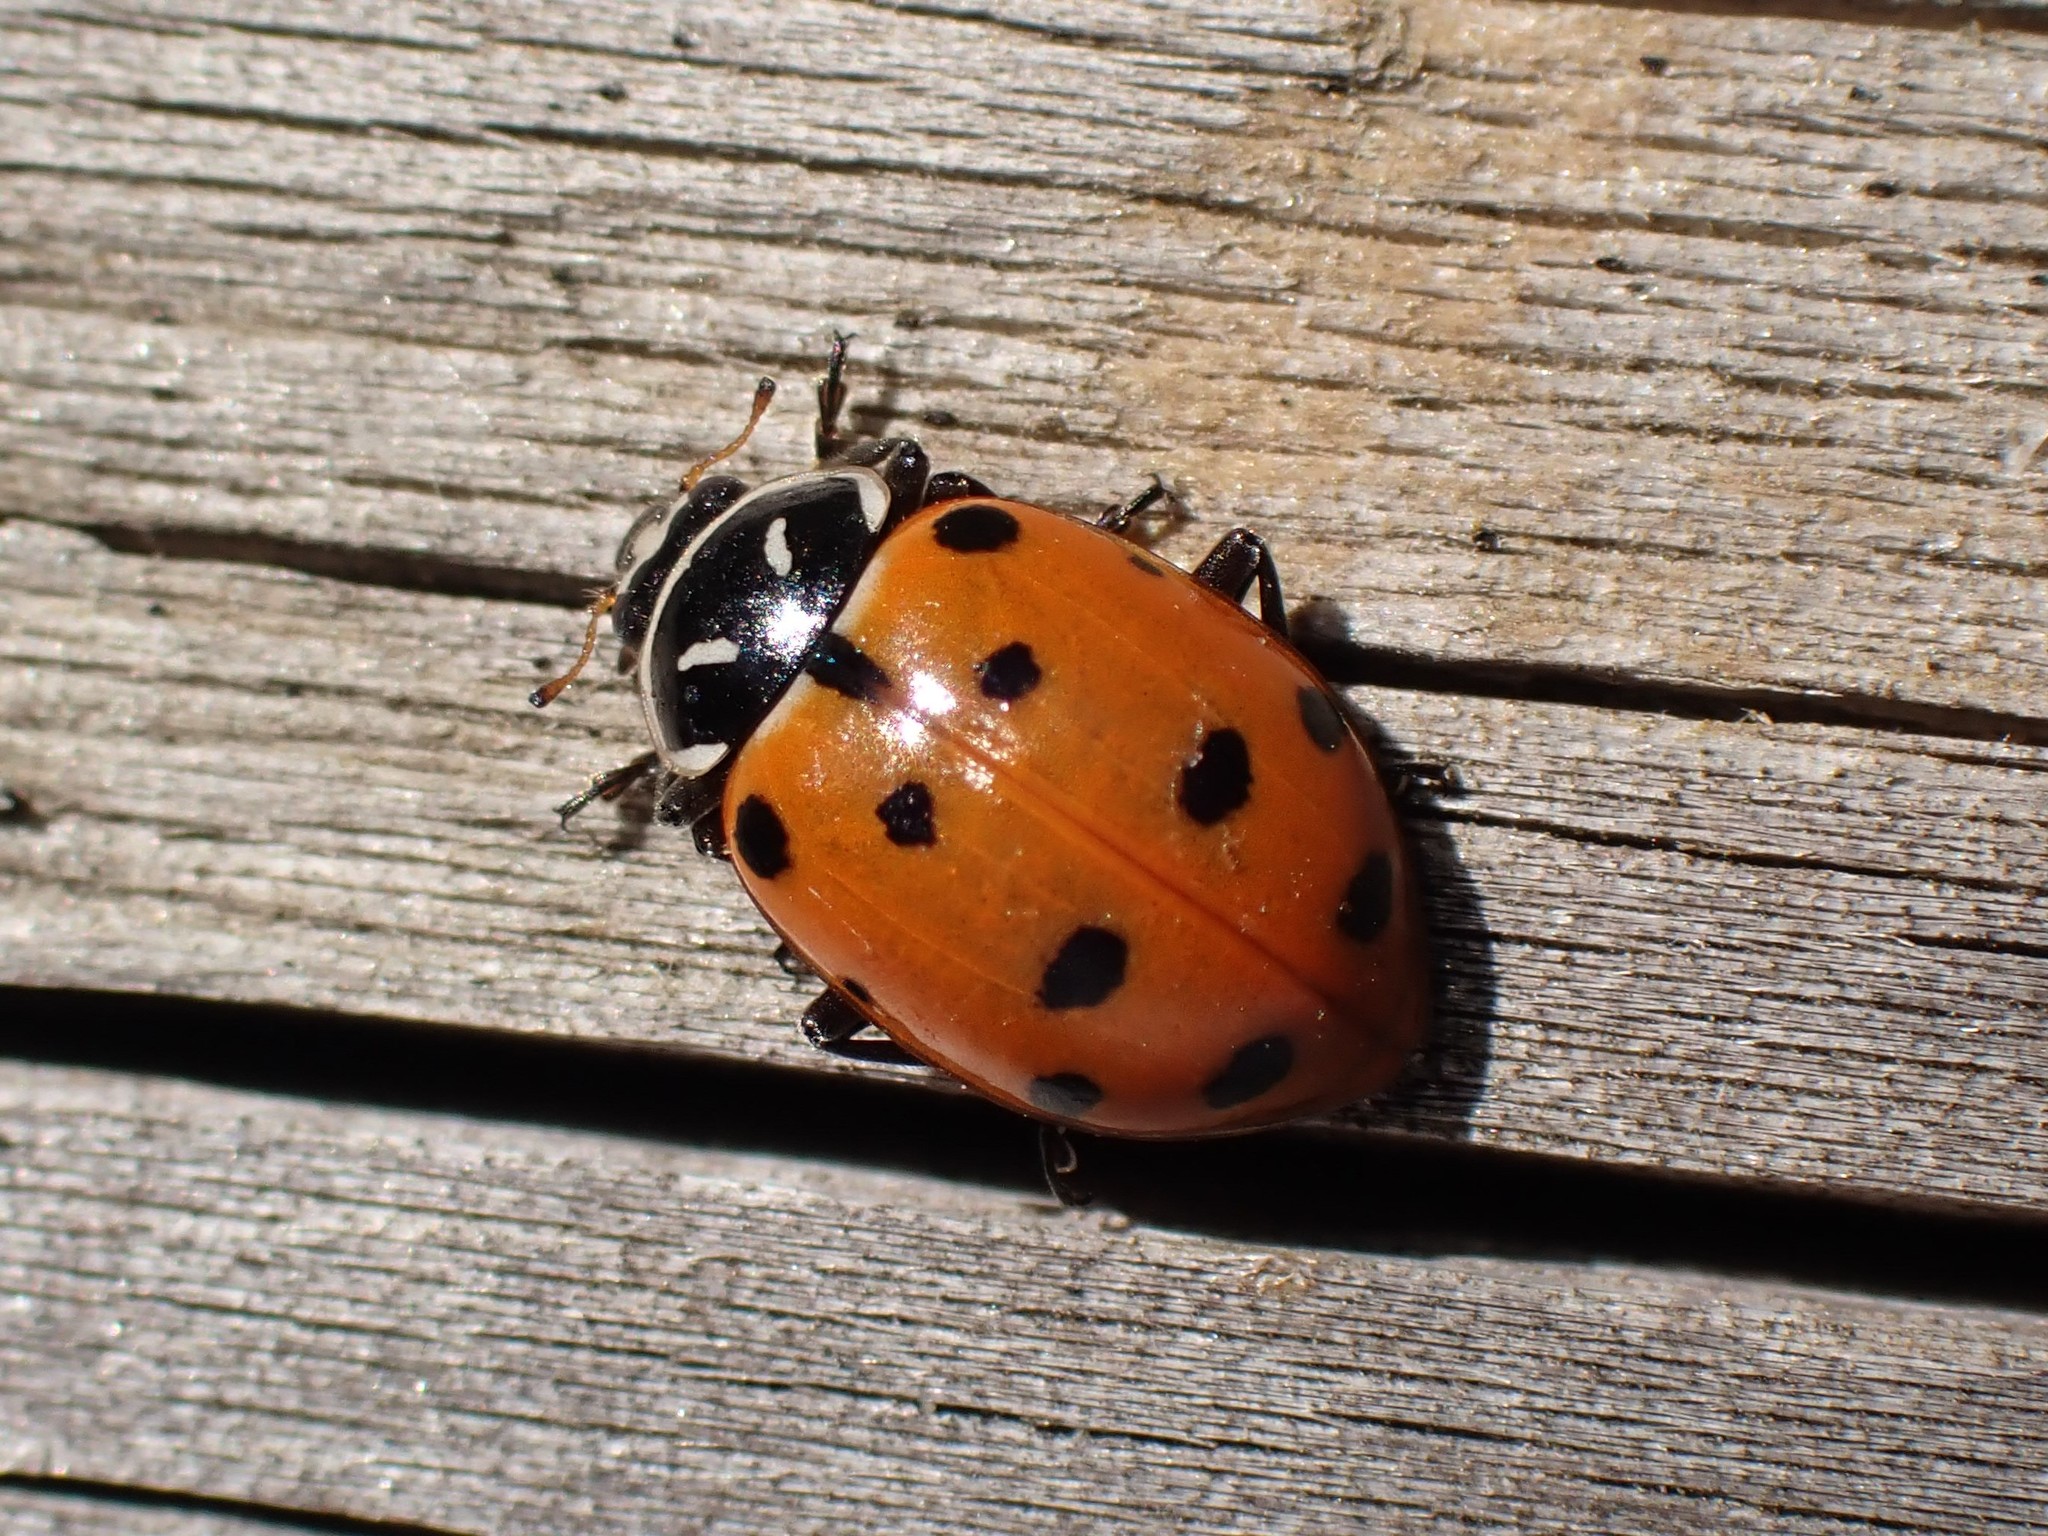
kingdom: Animalia
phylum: Arthropoda
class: Insecta
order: Coleoptera
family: Coccinellidae
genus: Hippodamia
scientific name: Hippodamia convergens
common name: Convergent lady beetle
